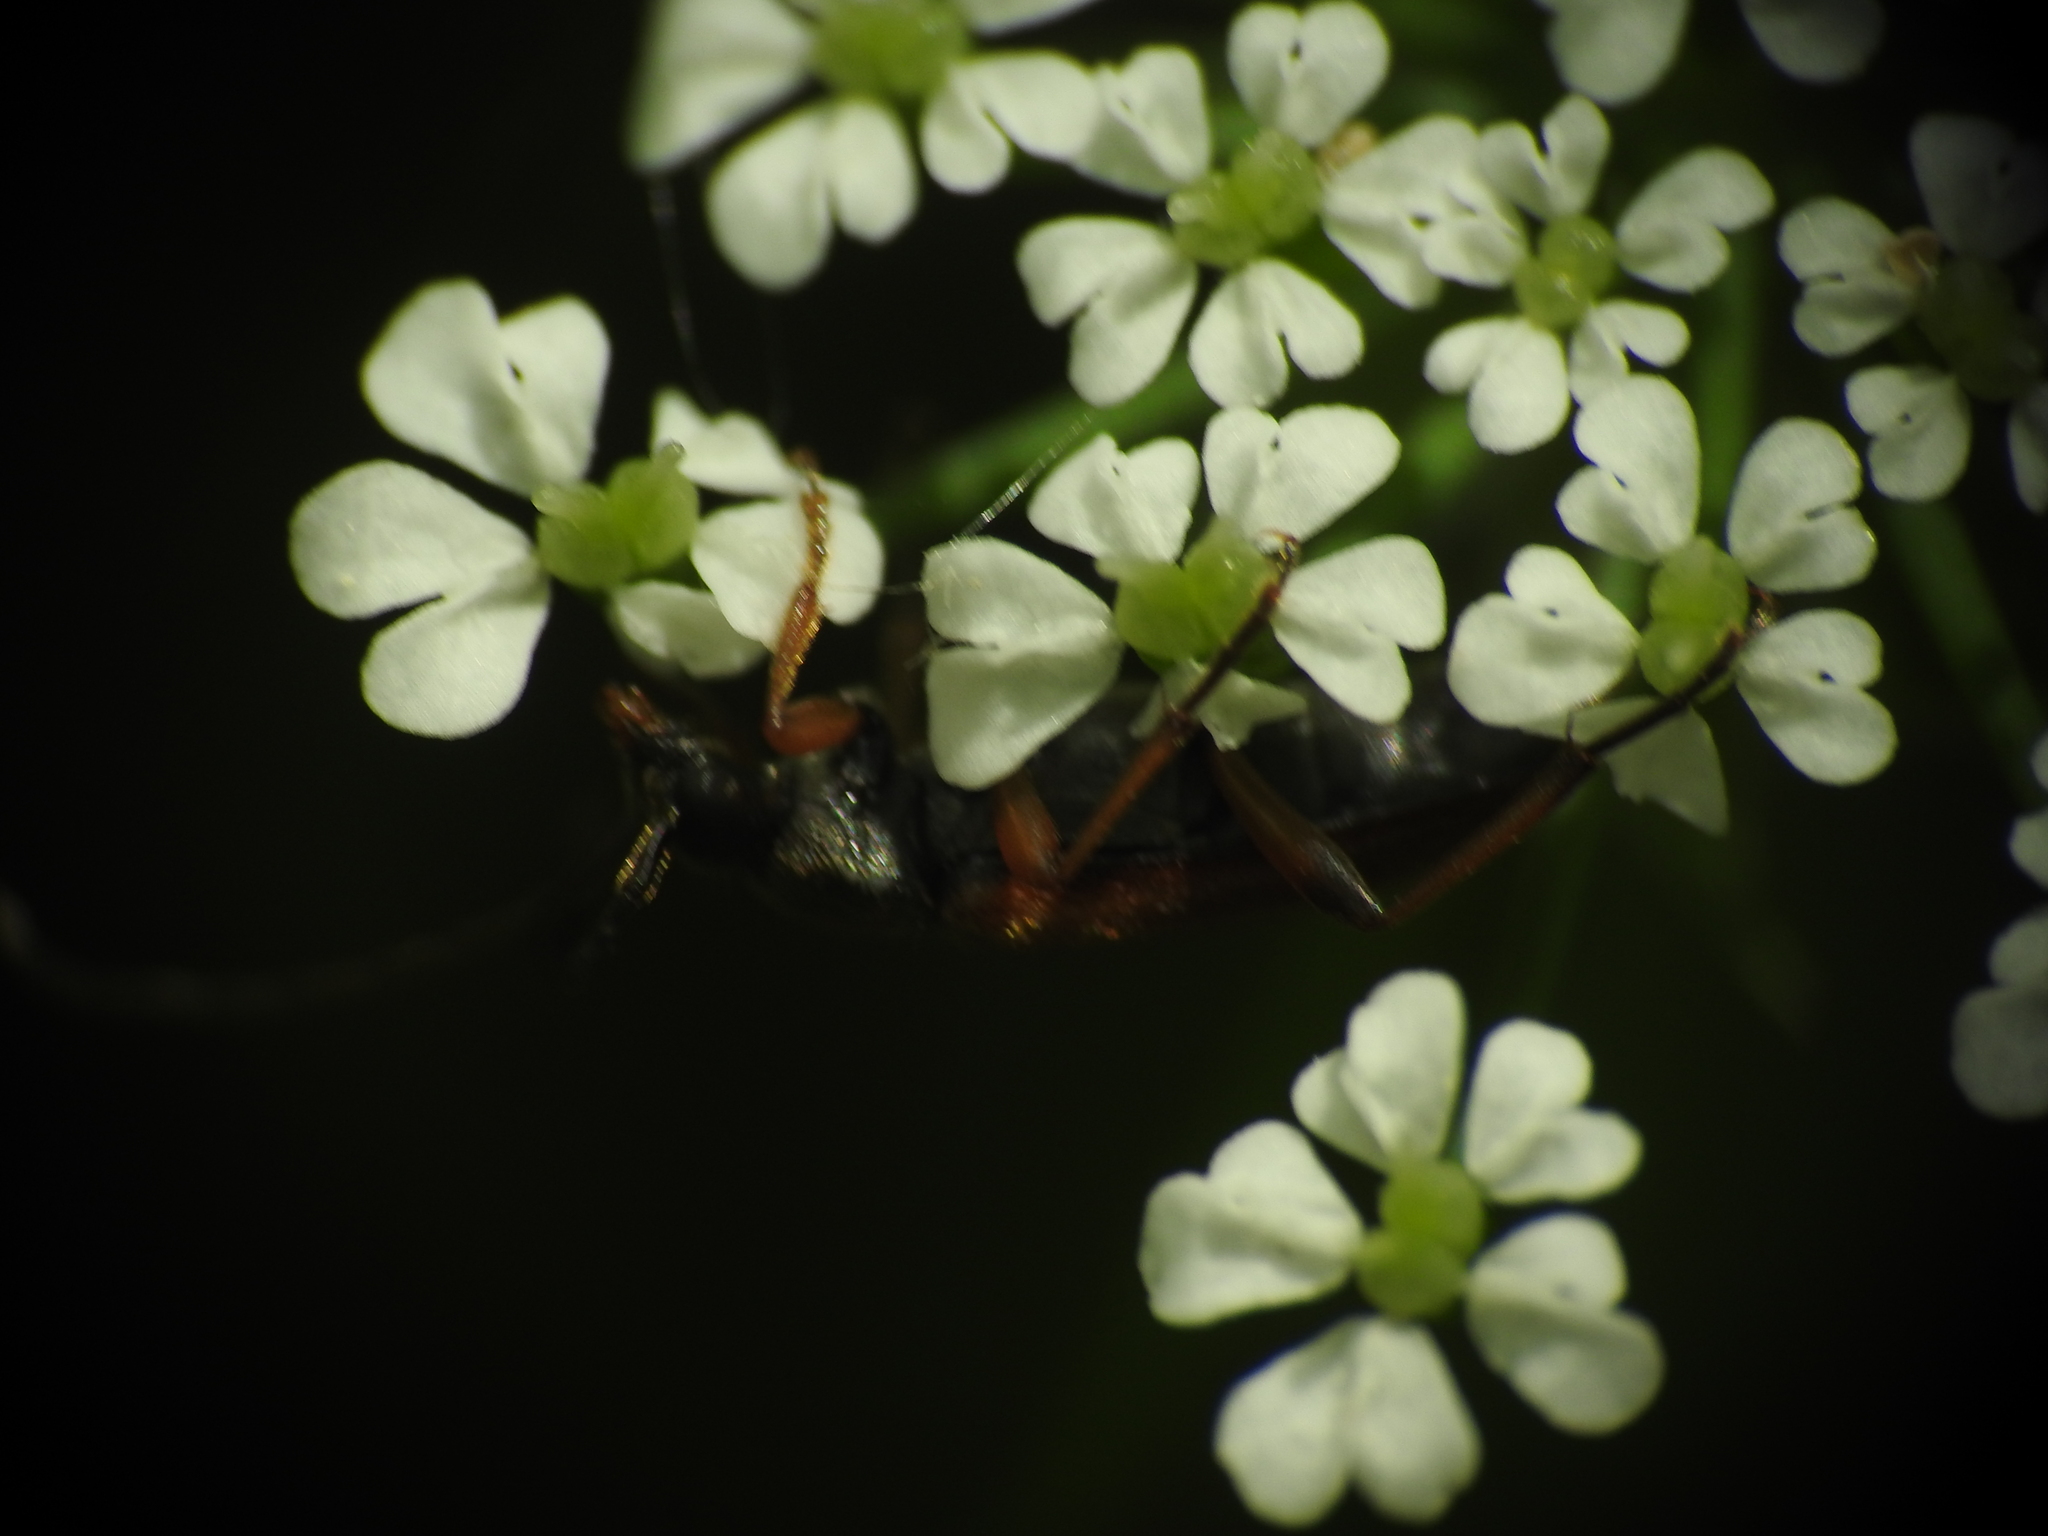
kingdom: Animalia
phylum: Arthropoda
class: Insecta
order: Coleoptera
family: Cerambycidae
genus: Alosterna
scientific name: Alosterna tabacicolor
